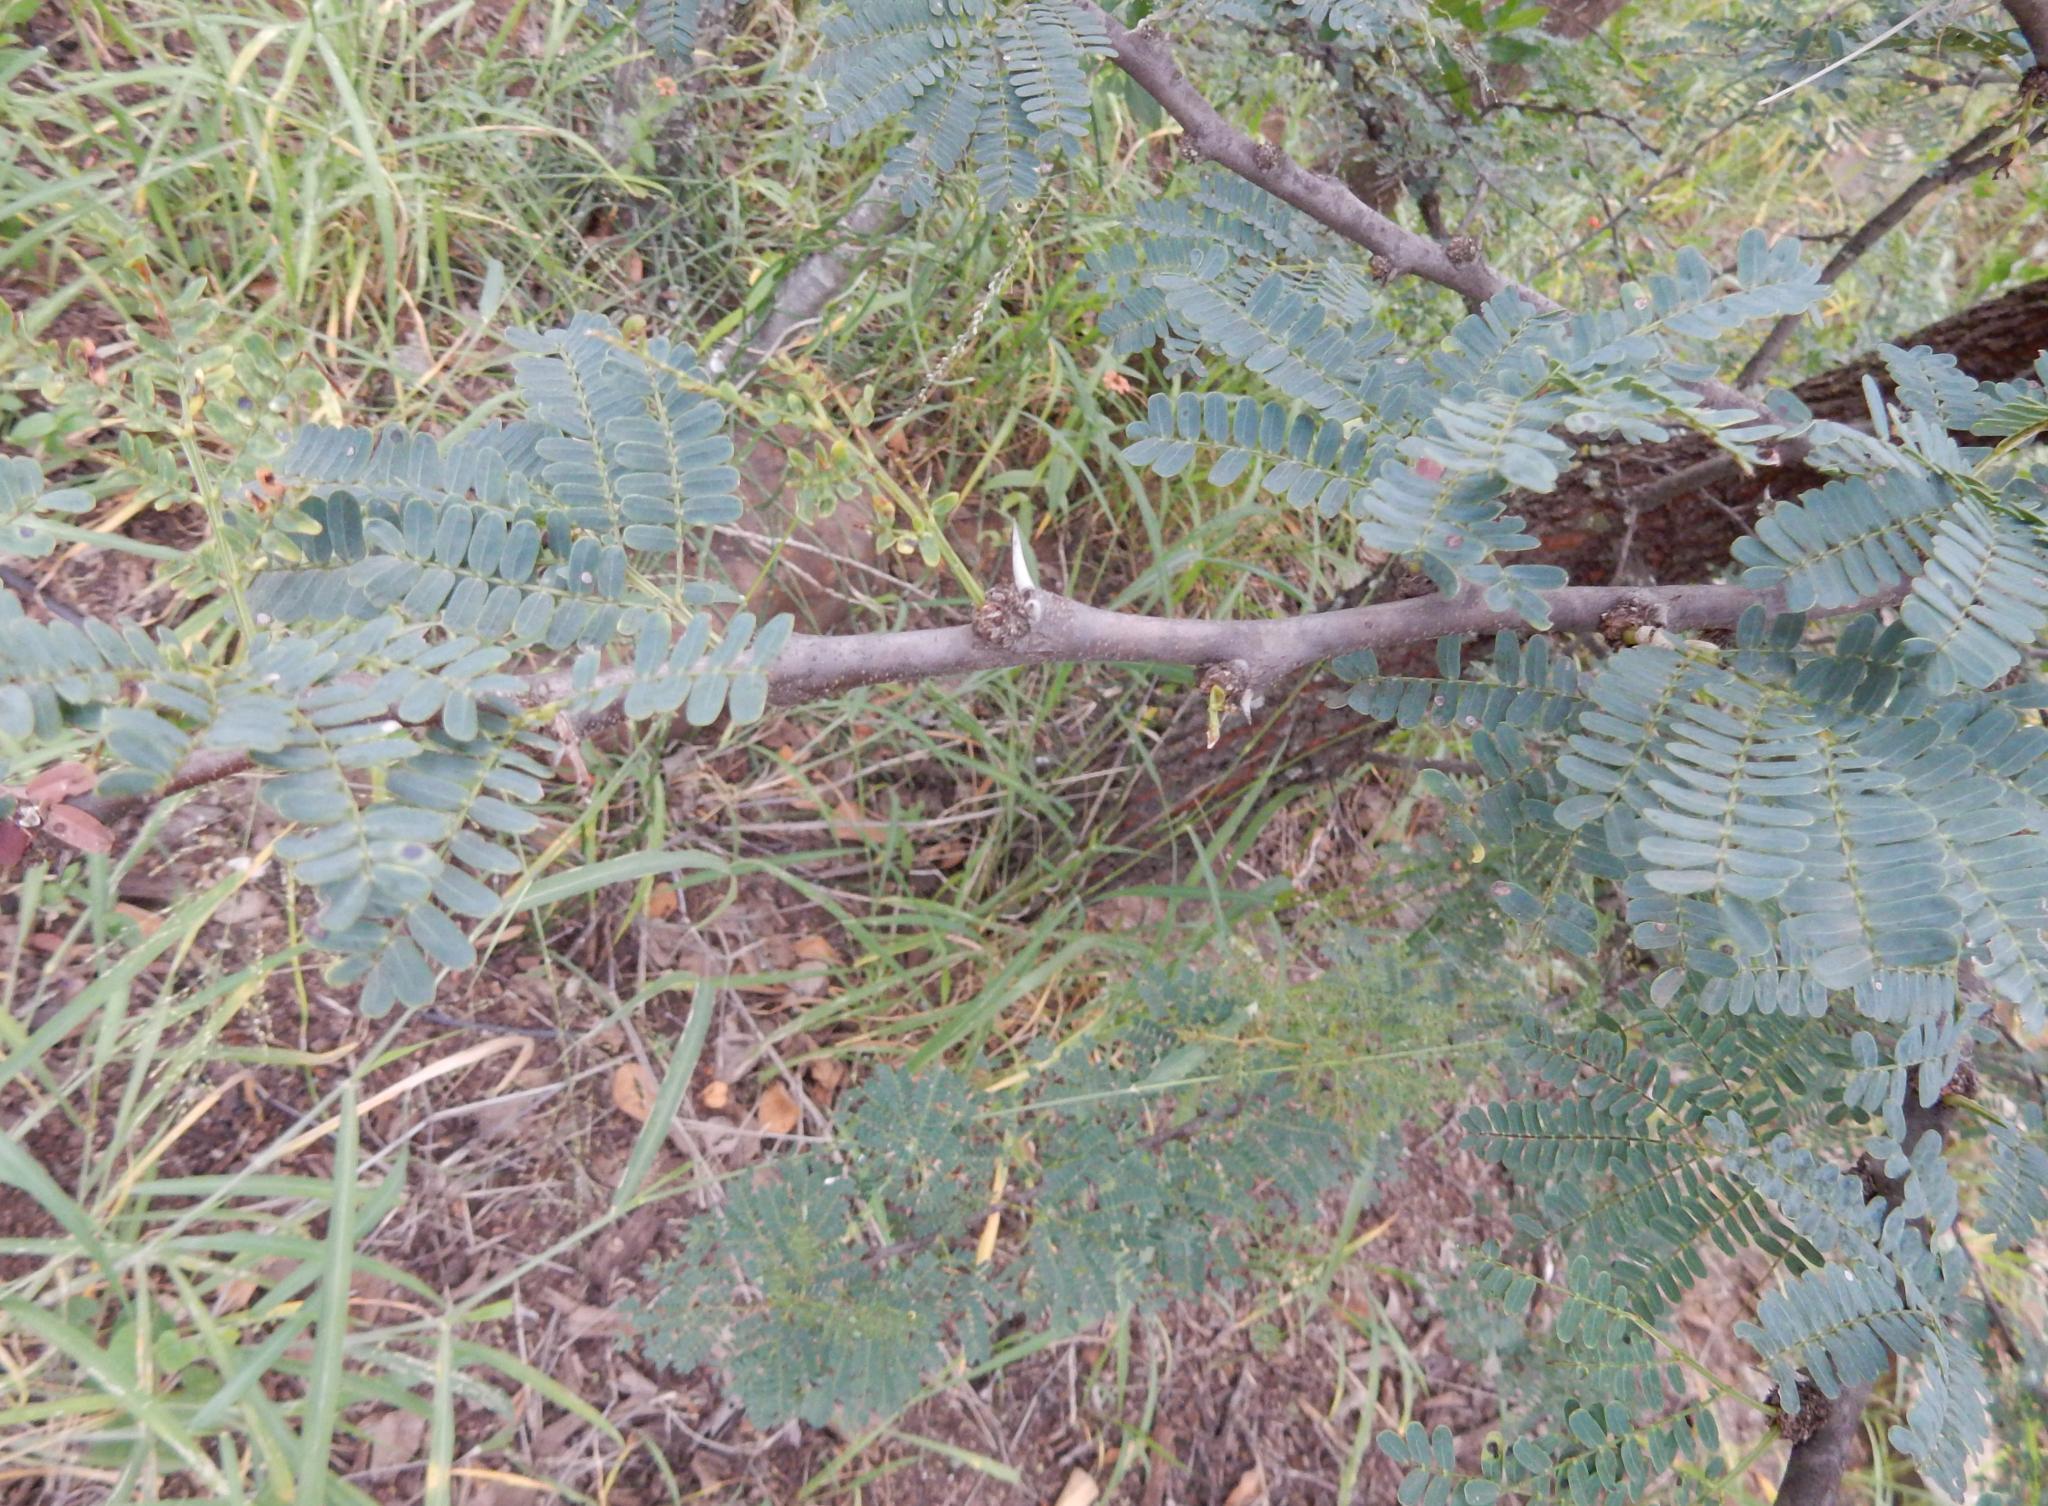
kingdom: Plantae
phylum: Tracheophyta
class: Magnoliopsida
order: Fabales
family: Fabaceae
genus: Vachellia
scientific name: Vachellia robusta
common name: Ankle thorn
